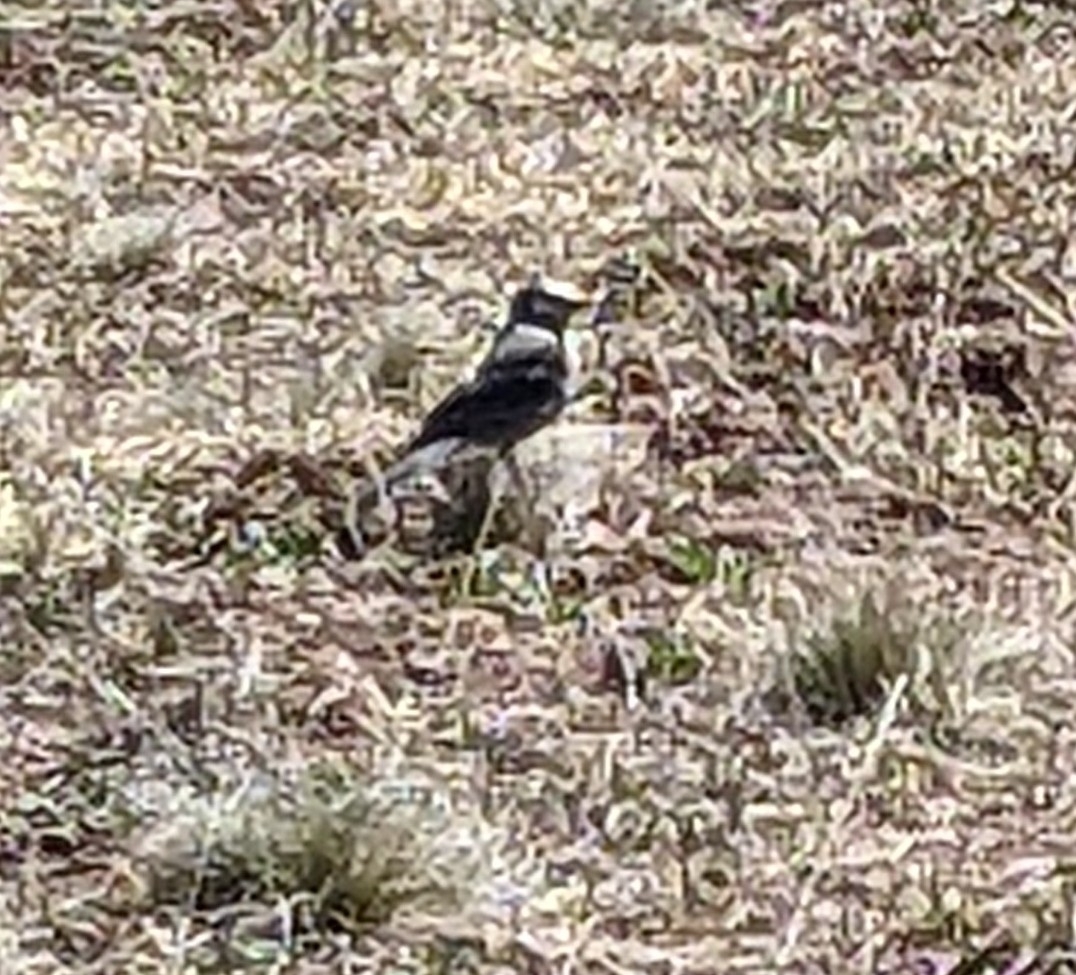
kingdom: Animalia
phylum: Chordata
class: Aves
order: Passeriformes
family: Corvidae
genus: Perisoreus
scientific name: Perisoreus canadensis
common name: Gray jay
